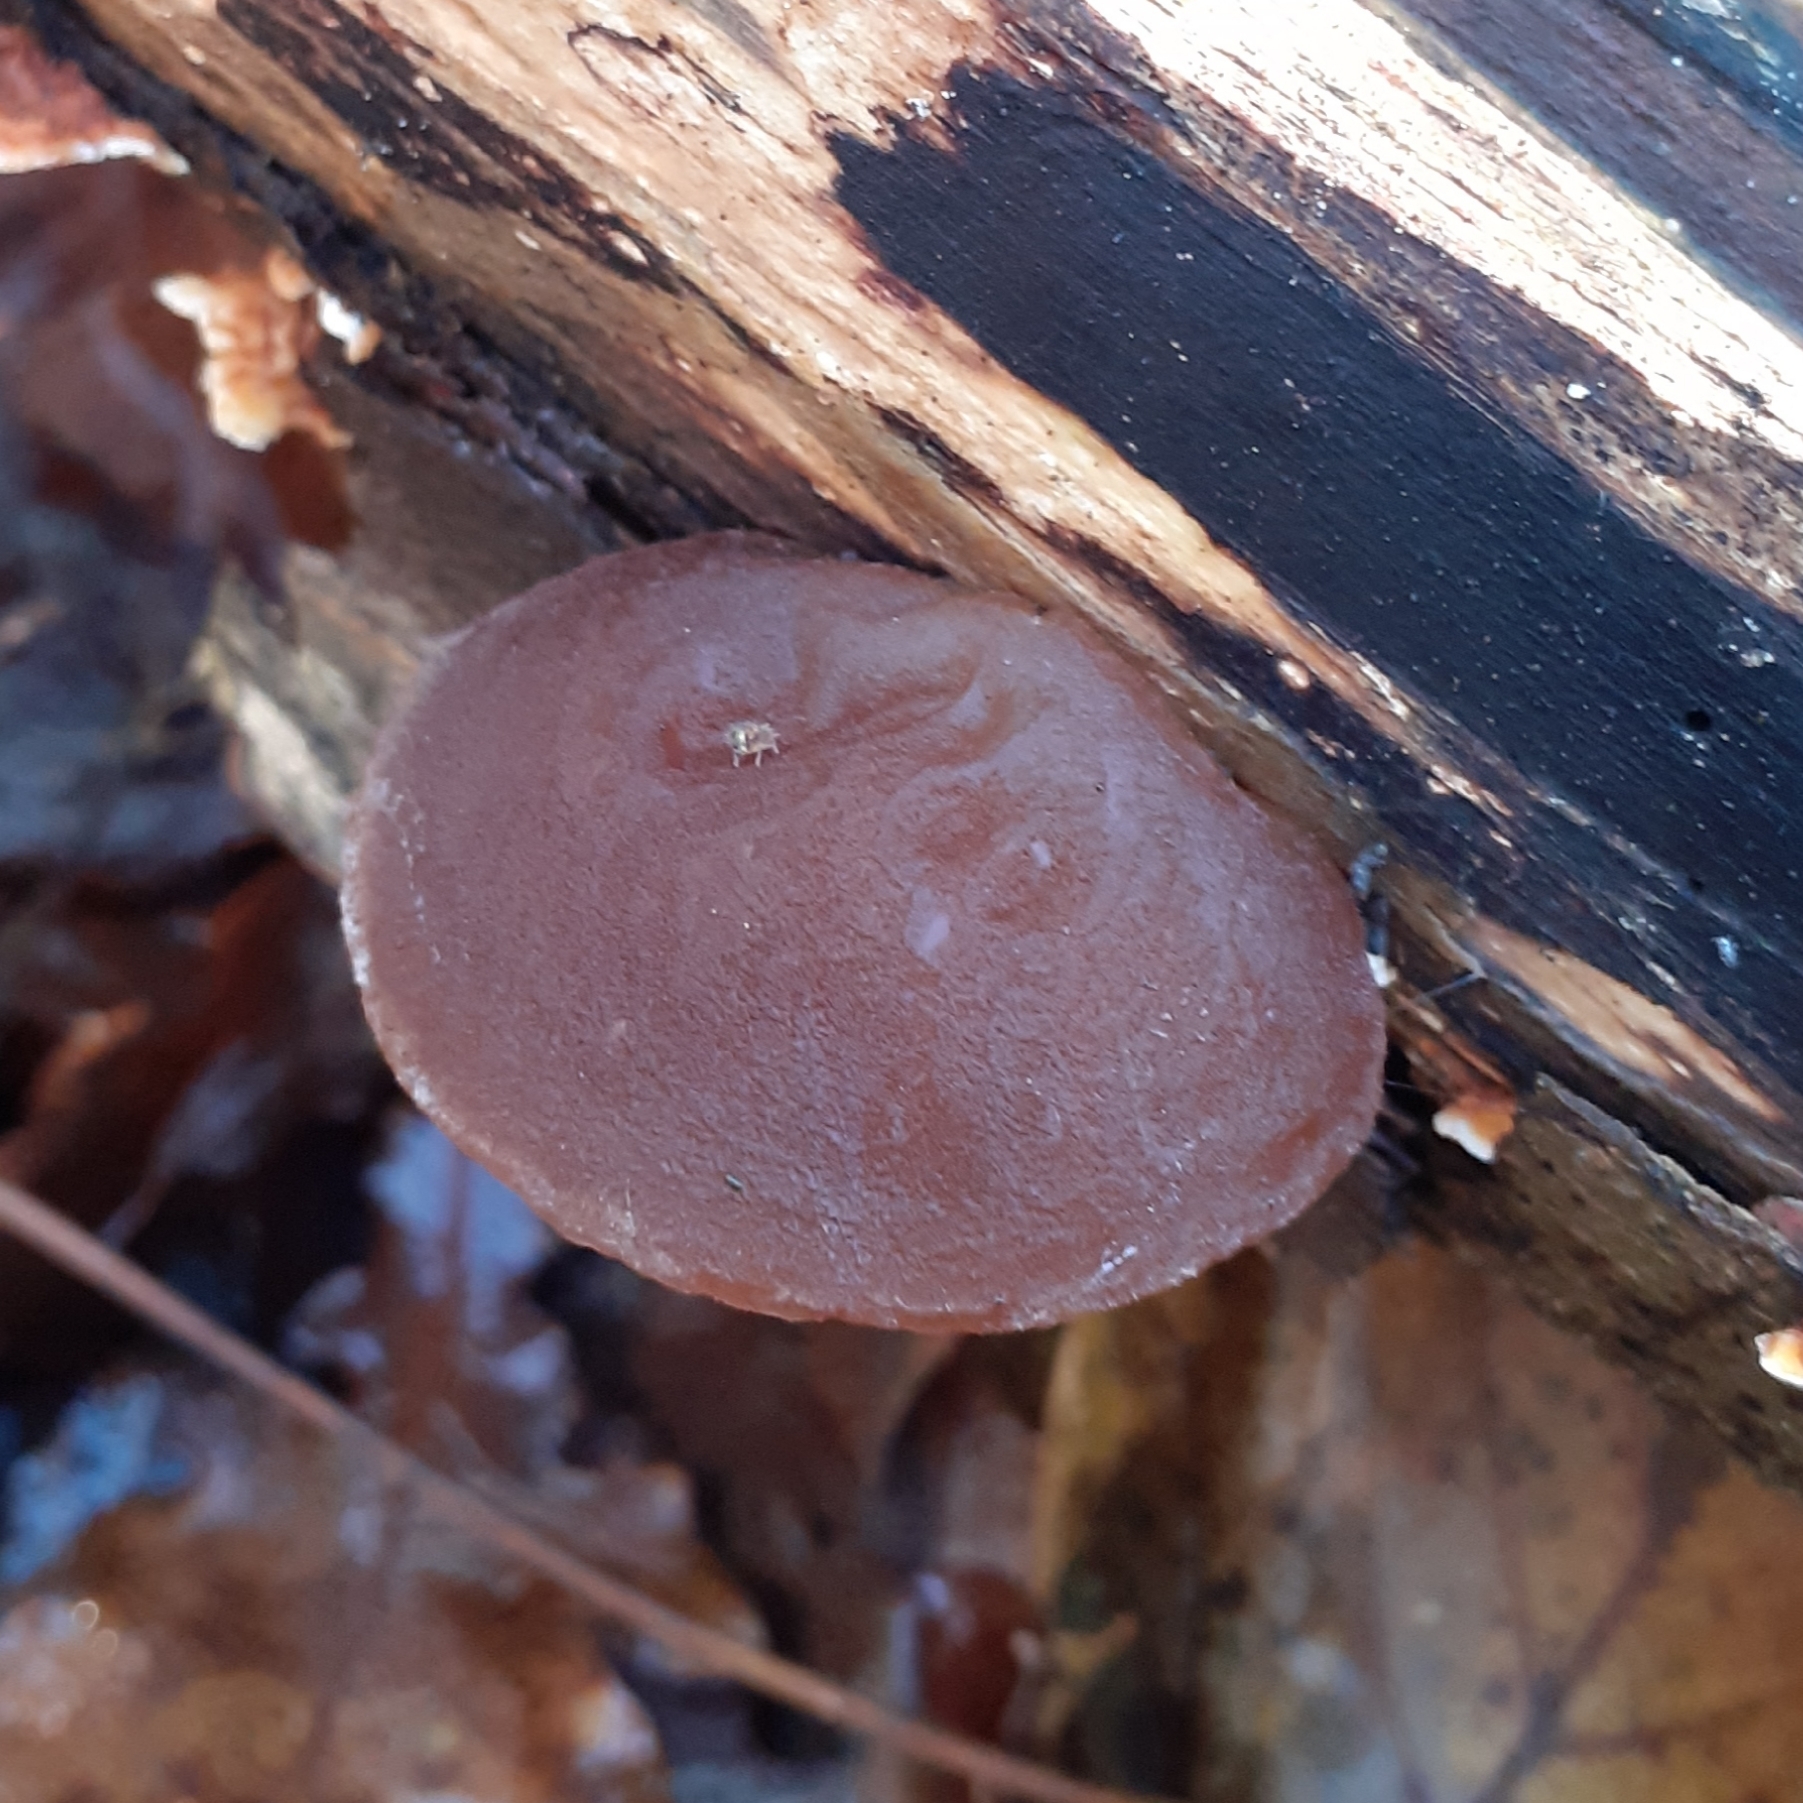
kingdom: Fungi
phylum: Basidiomycota
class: Agaricomycetes
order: Auriculariales
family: Auriculariaceae
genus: Auricularia
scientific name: Auricularia auricula-judae
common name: Jelly ear
